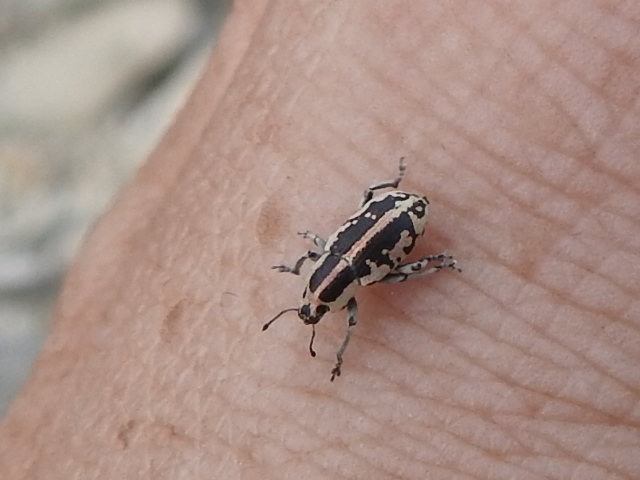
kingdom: Animalia
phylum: Arthropoda
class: Insecta
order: Coleoptera
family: Curculionidae
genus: Eudiagogus
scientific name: Eudiagogus rosenschoeldi
